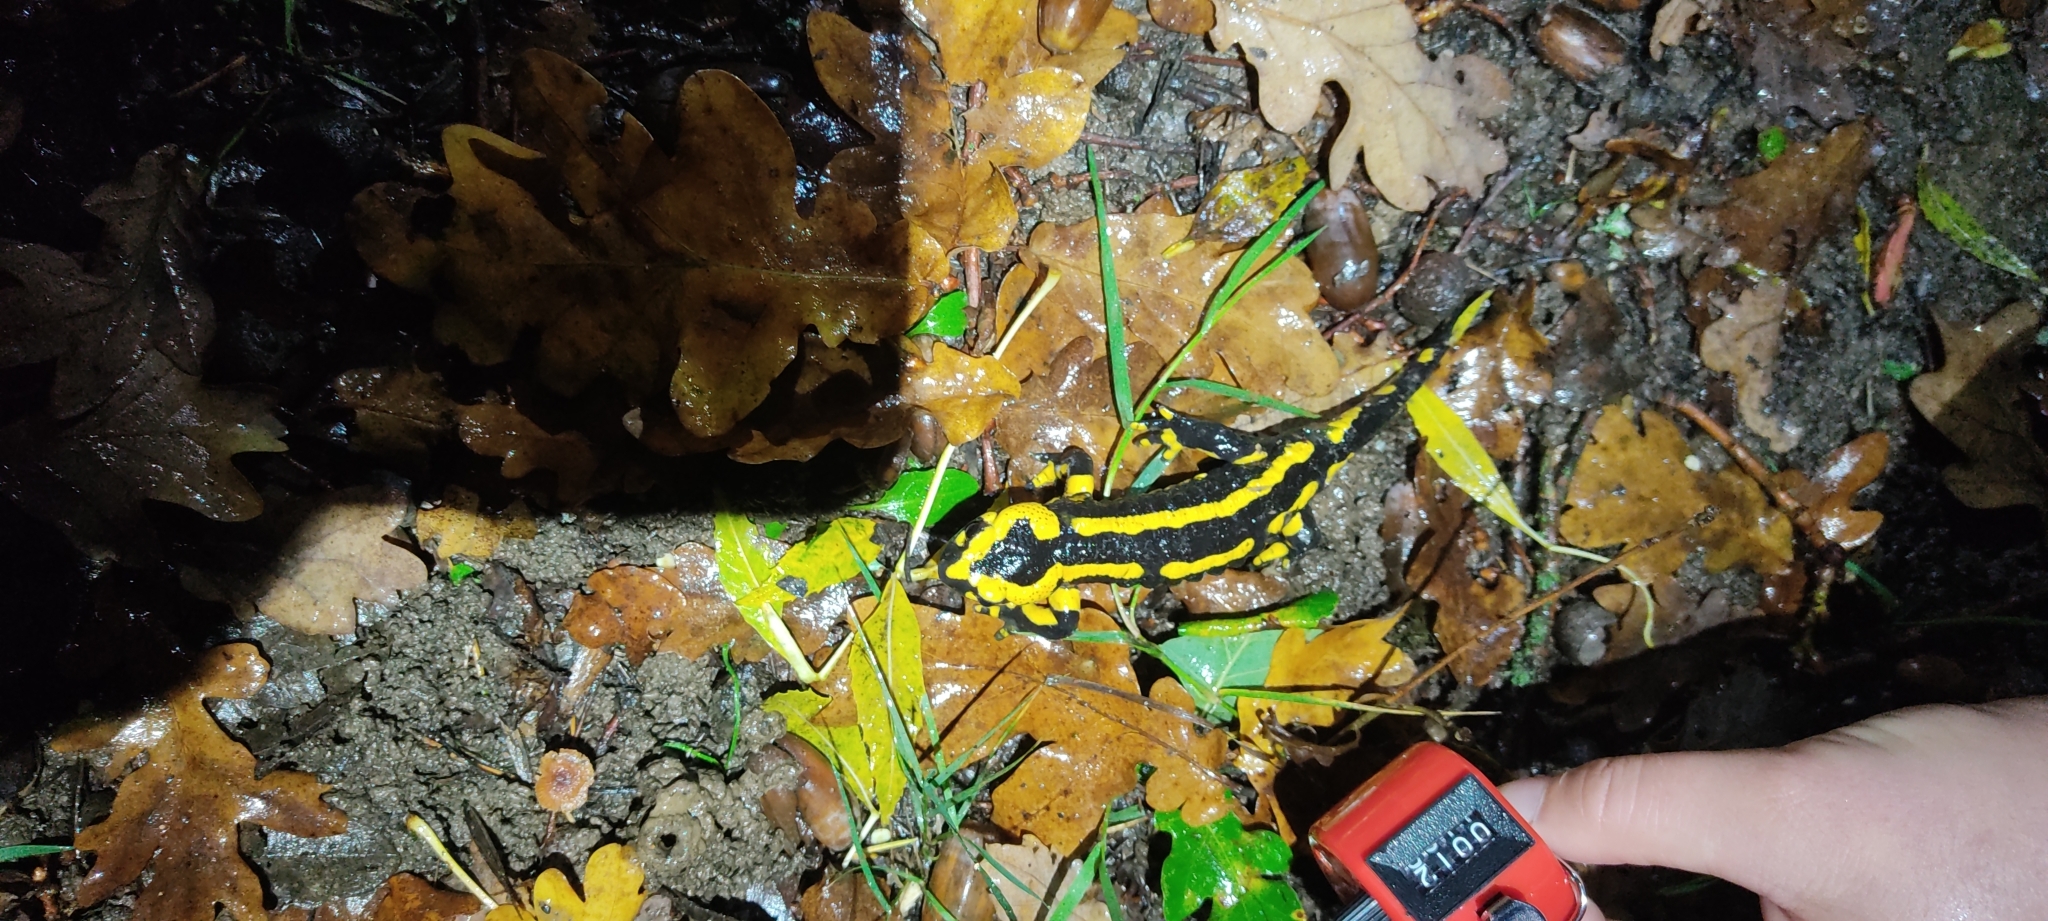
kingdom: Animalia
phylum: Chordata
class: Amphibia
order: Caudata
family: Salamandridae
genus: Salamandra
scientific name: Salamandra salamandra
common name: Fire salamander
